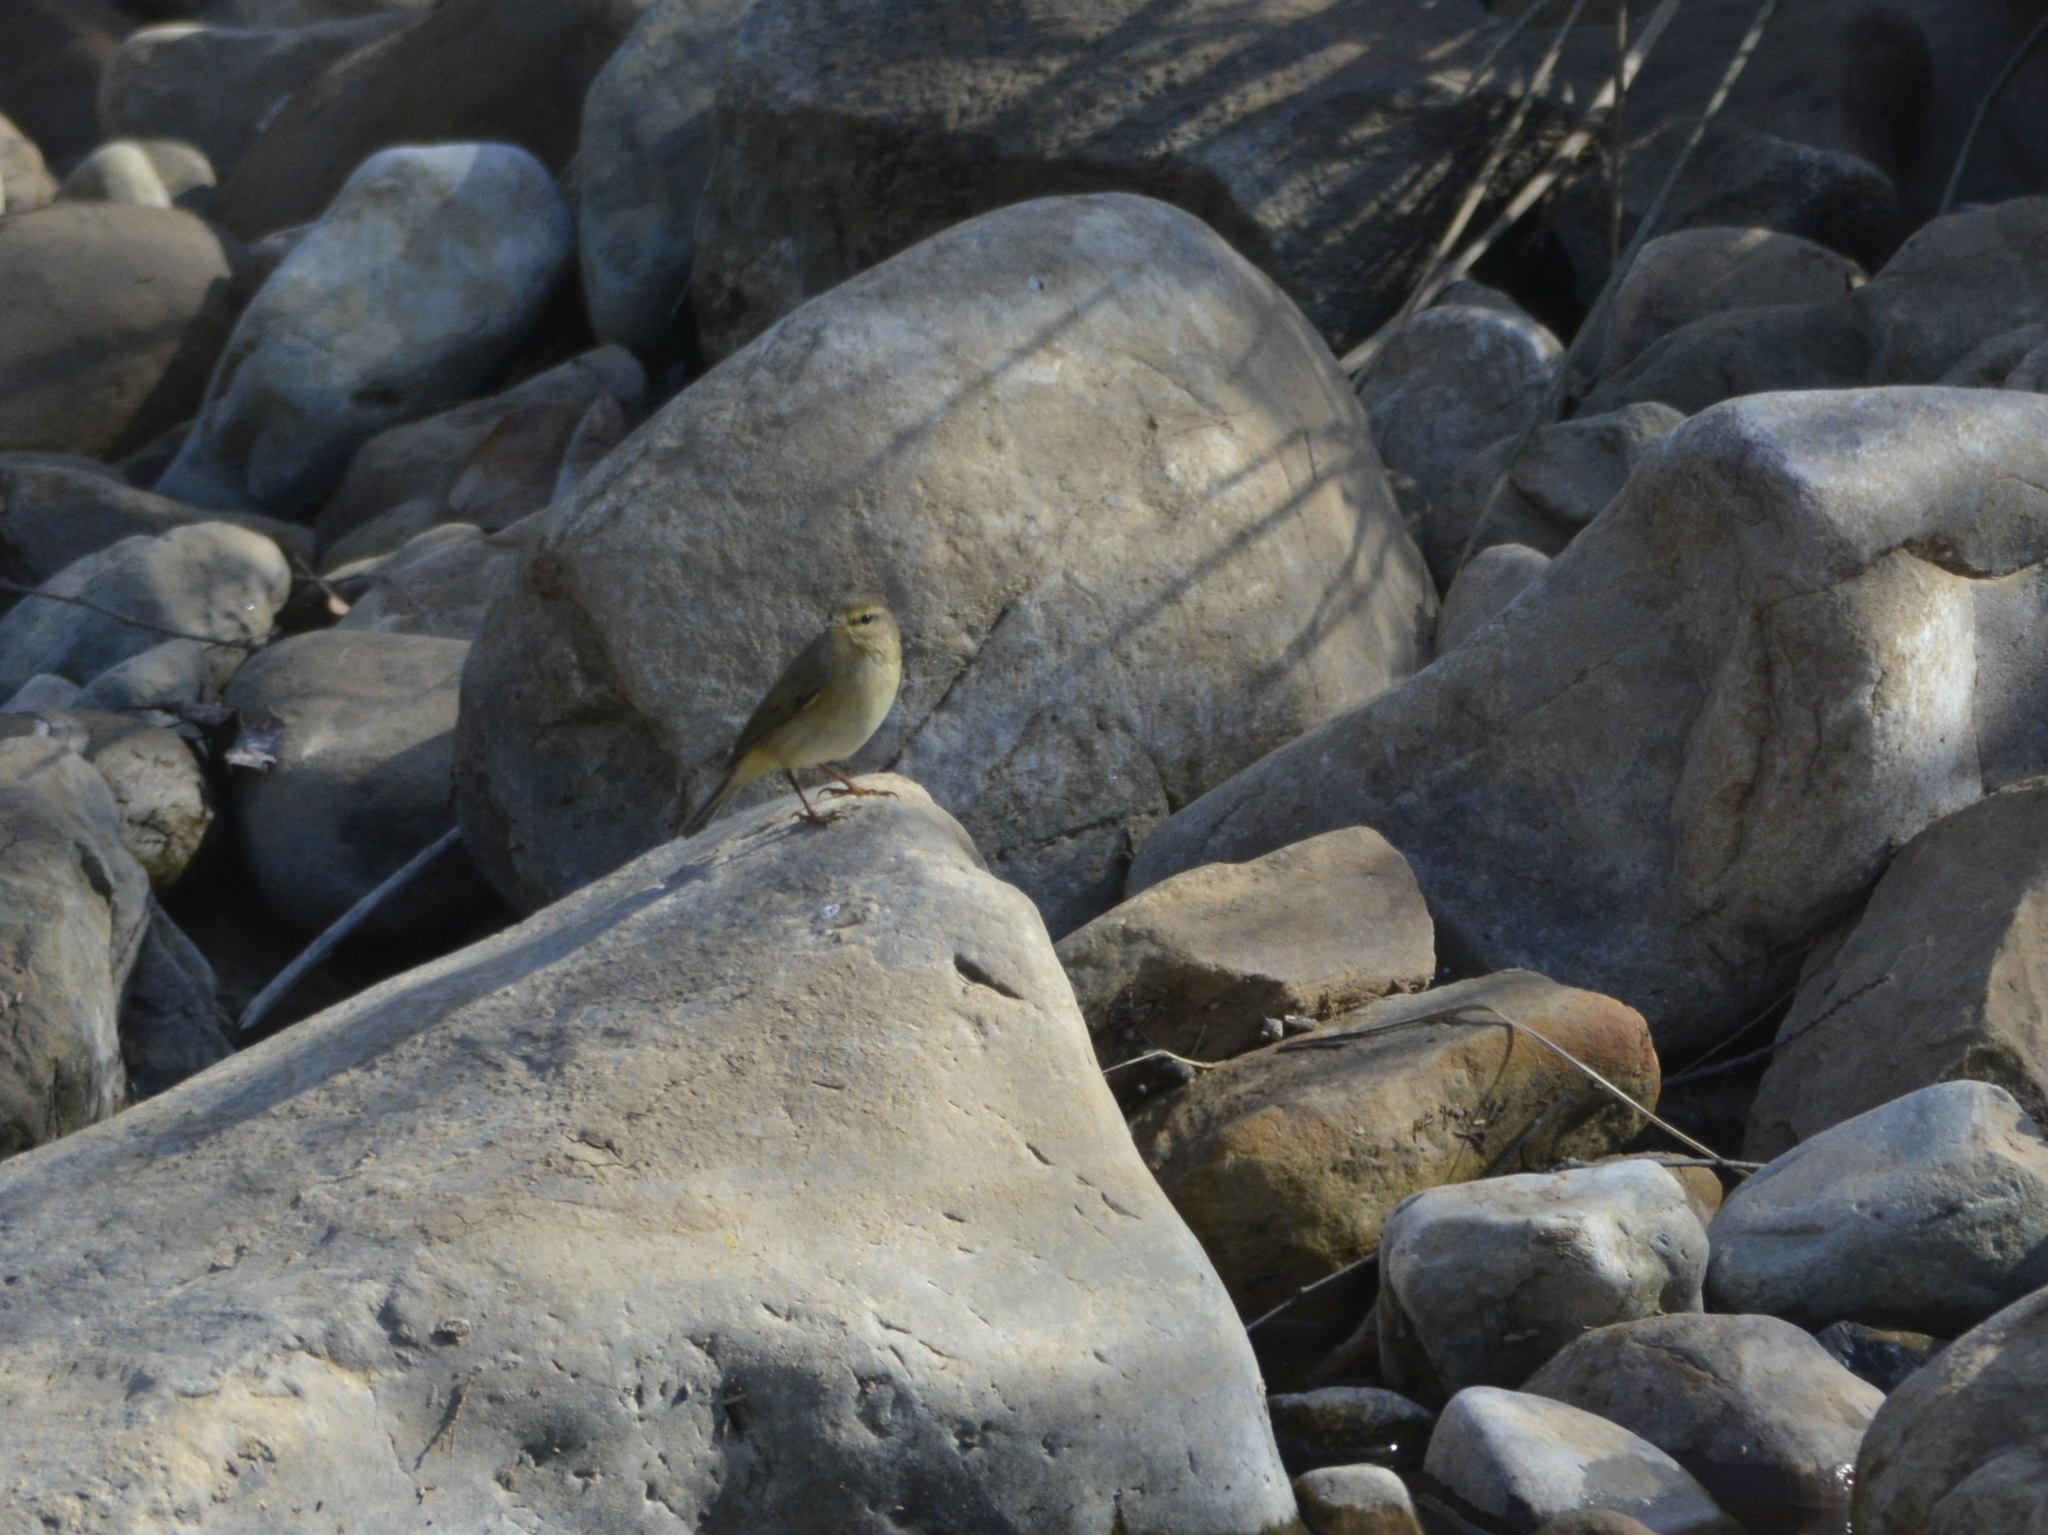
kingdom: Animalia
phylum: Chordata
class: Aves
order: Passeriformes
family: Phylloscopidae
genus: Phylloscopus
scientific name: Phylloscopus collybita
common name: Common chiffchaff
